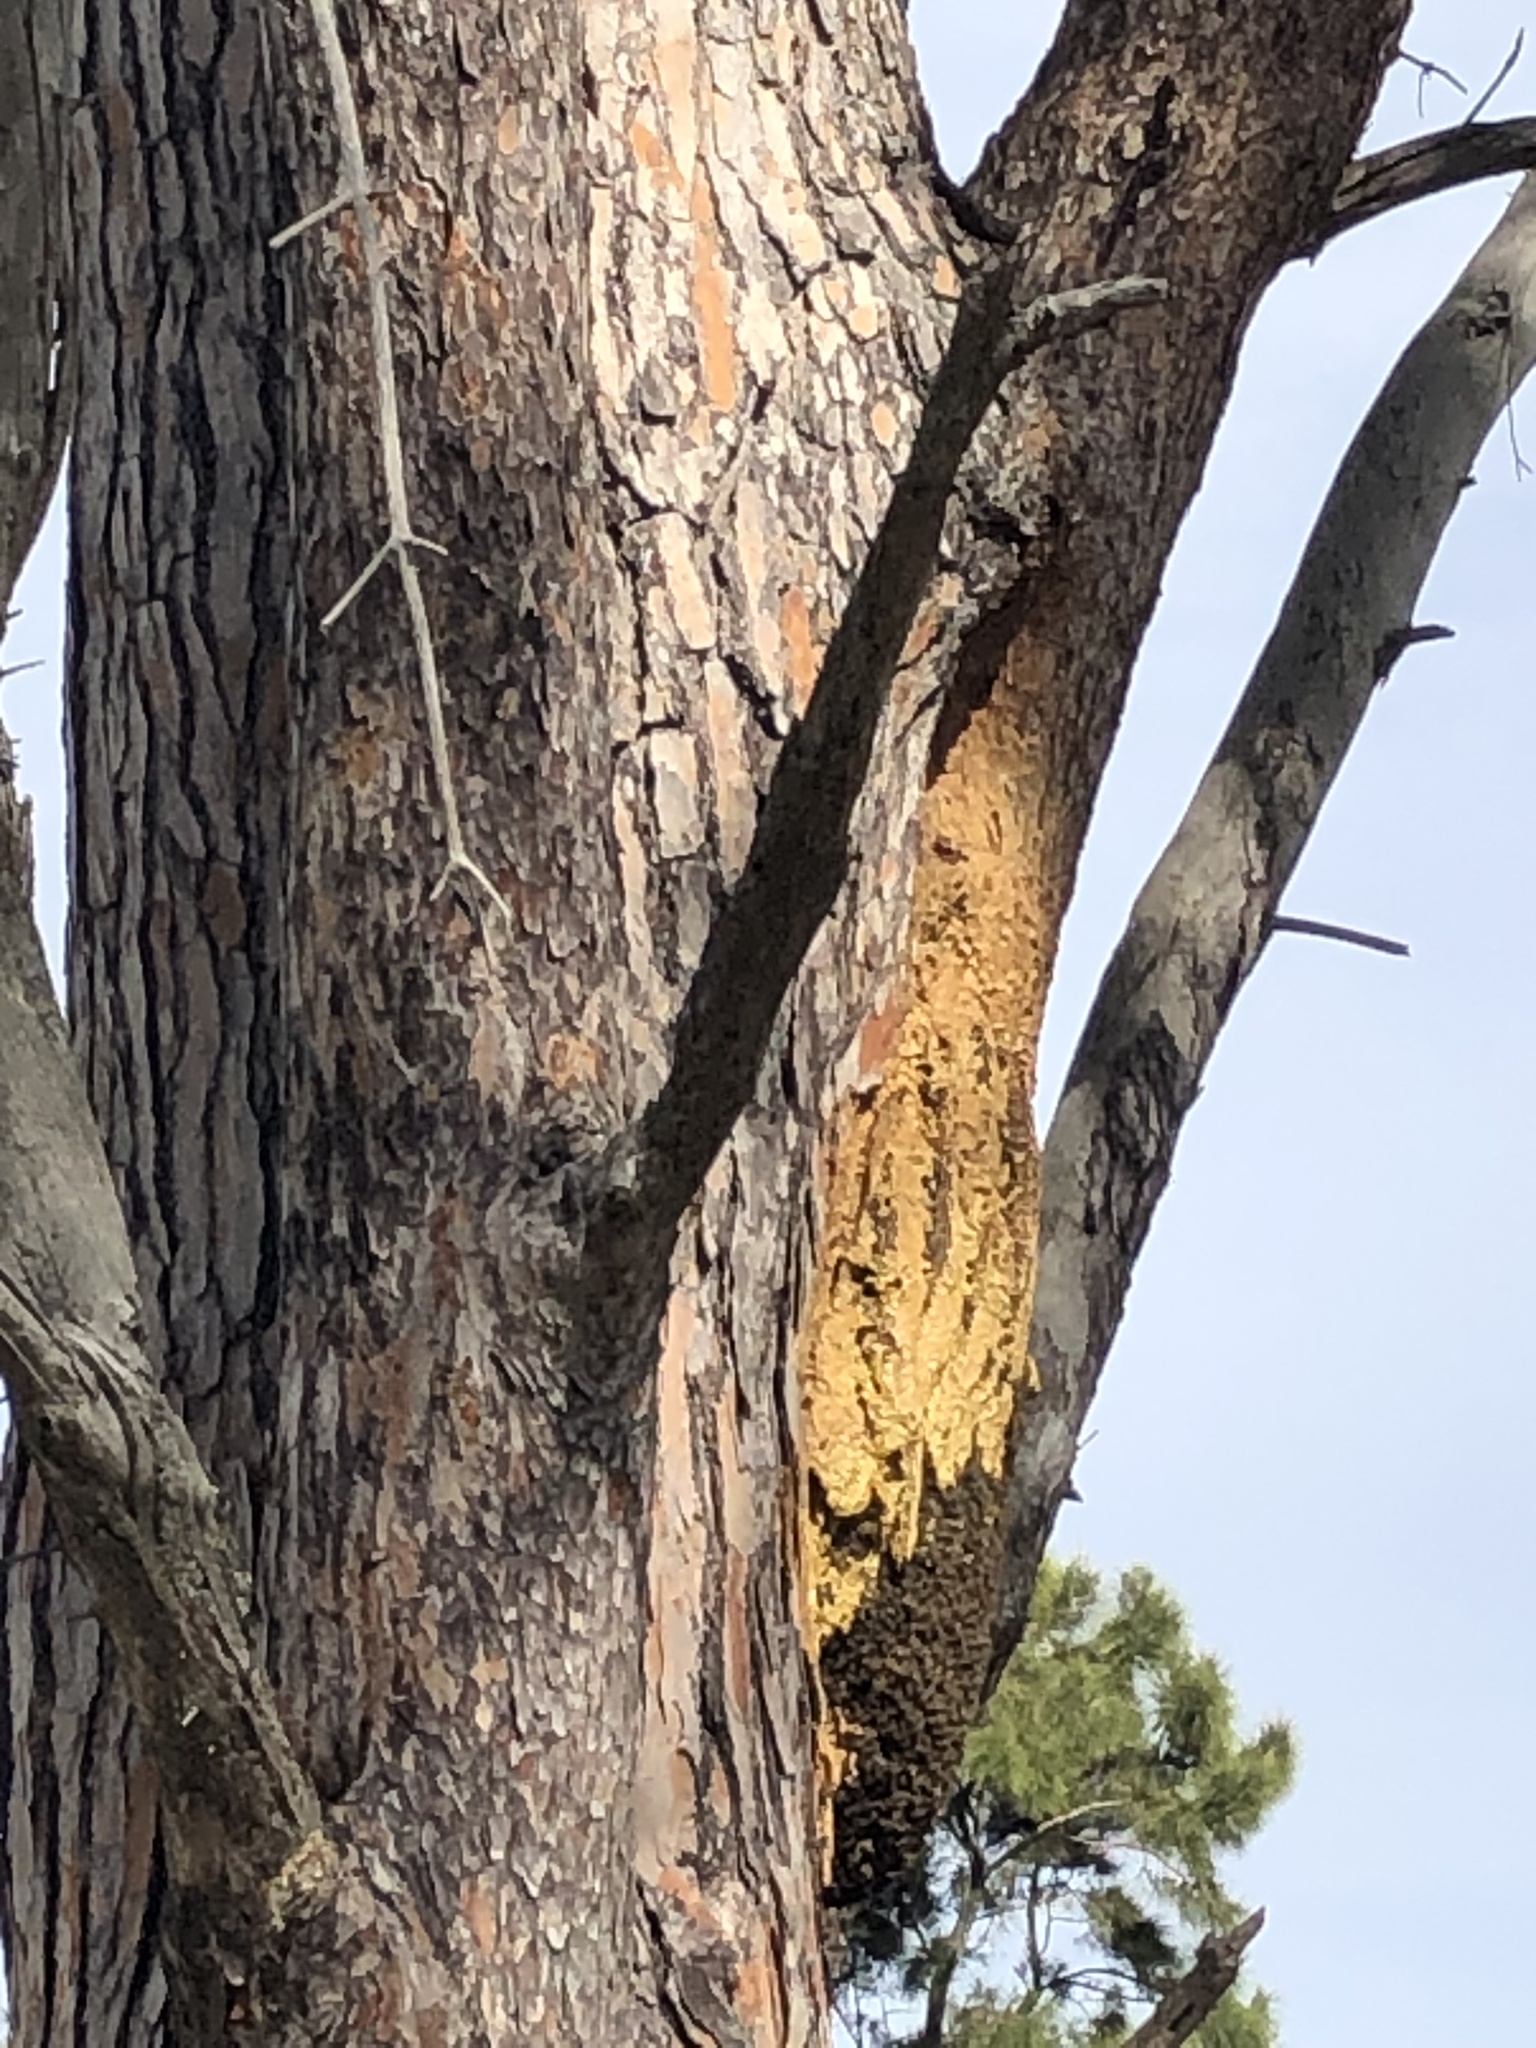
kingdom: Animalia
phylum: Arthropoda
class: Insecta
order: Hymenoptera
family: Apidae
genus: Apis
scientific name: Apis mellifera
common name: Honey bee
